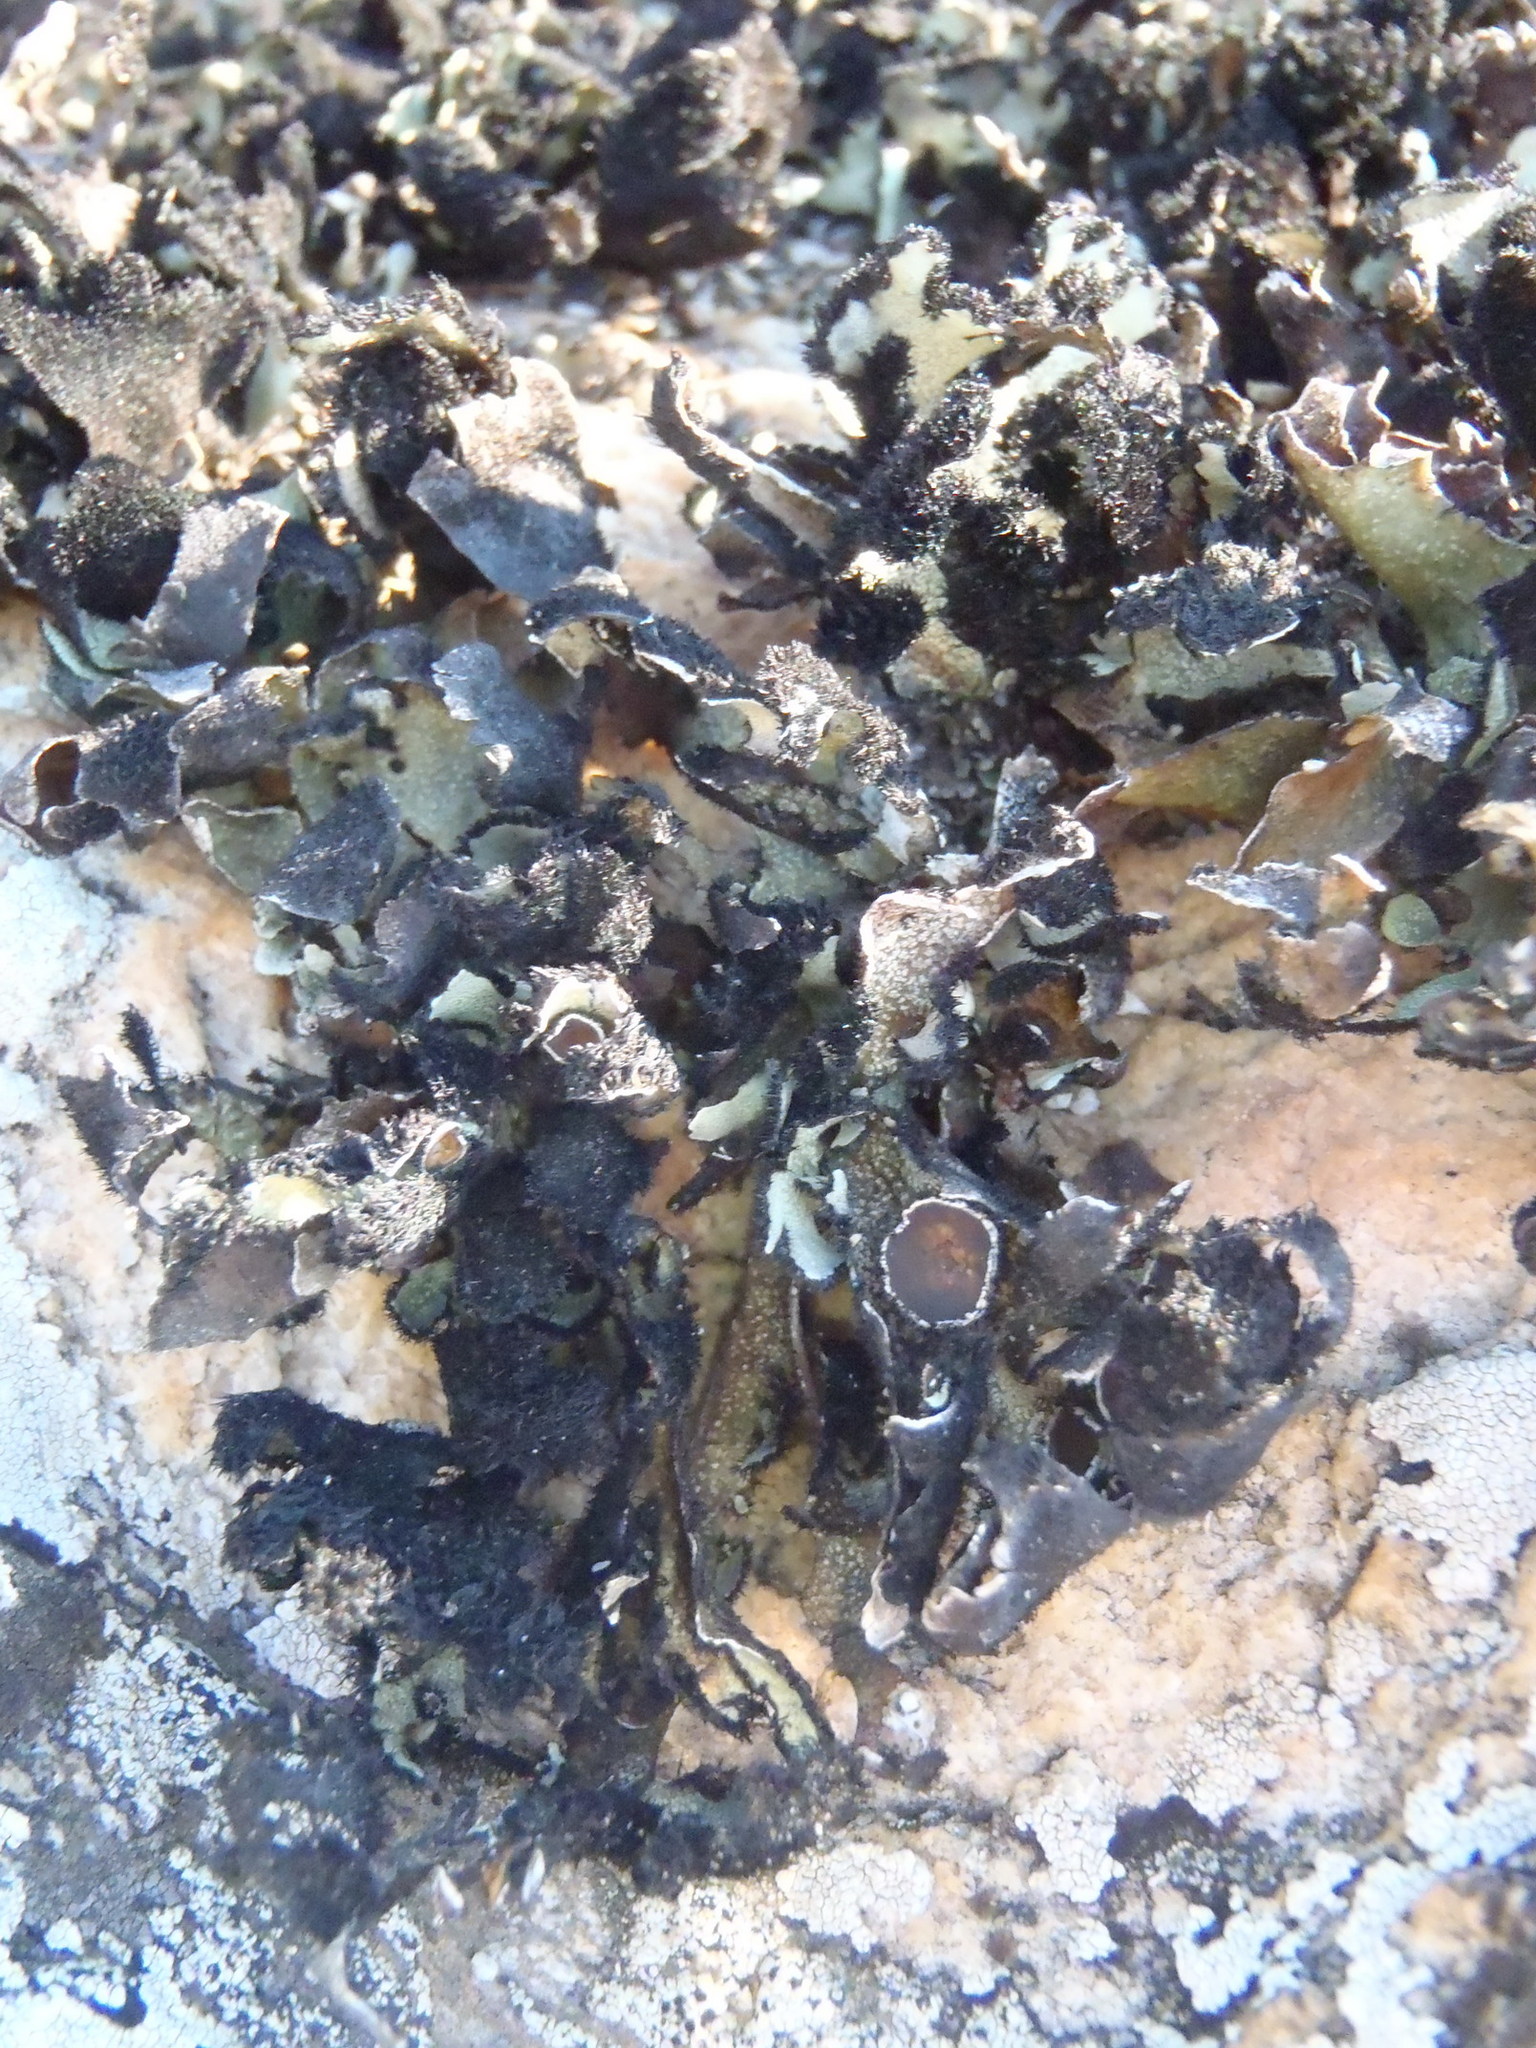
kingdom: Fungi
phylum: Ascomycota
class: Lecanoromycetes
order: Lecanorales
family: Parmeliaceae
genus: Xanthoparmelia
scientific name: Xanthoparmelia hottentotta
